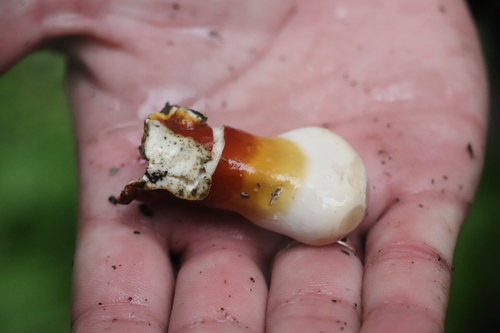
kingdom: Fungi
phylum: Basidiomycota
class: Agaricomycetes
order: Polyporales
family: Polyporaceae
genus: Ganoderma
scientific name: Ganoderma lucidum
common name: Lacquered bracket
